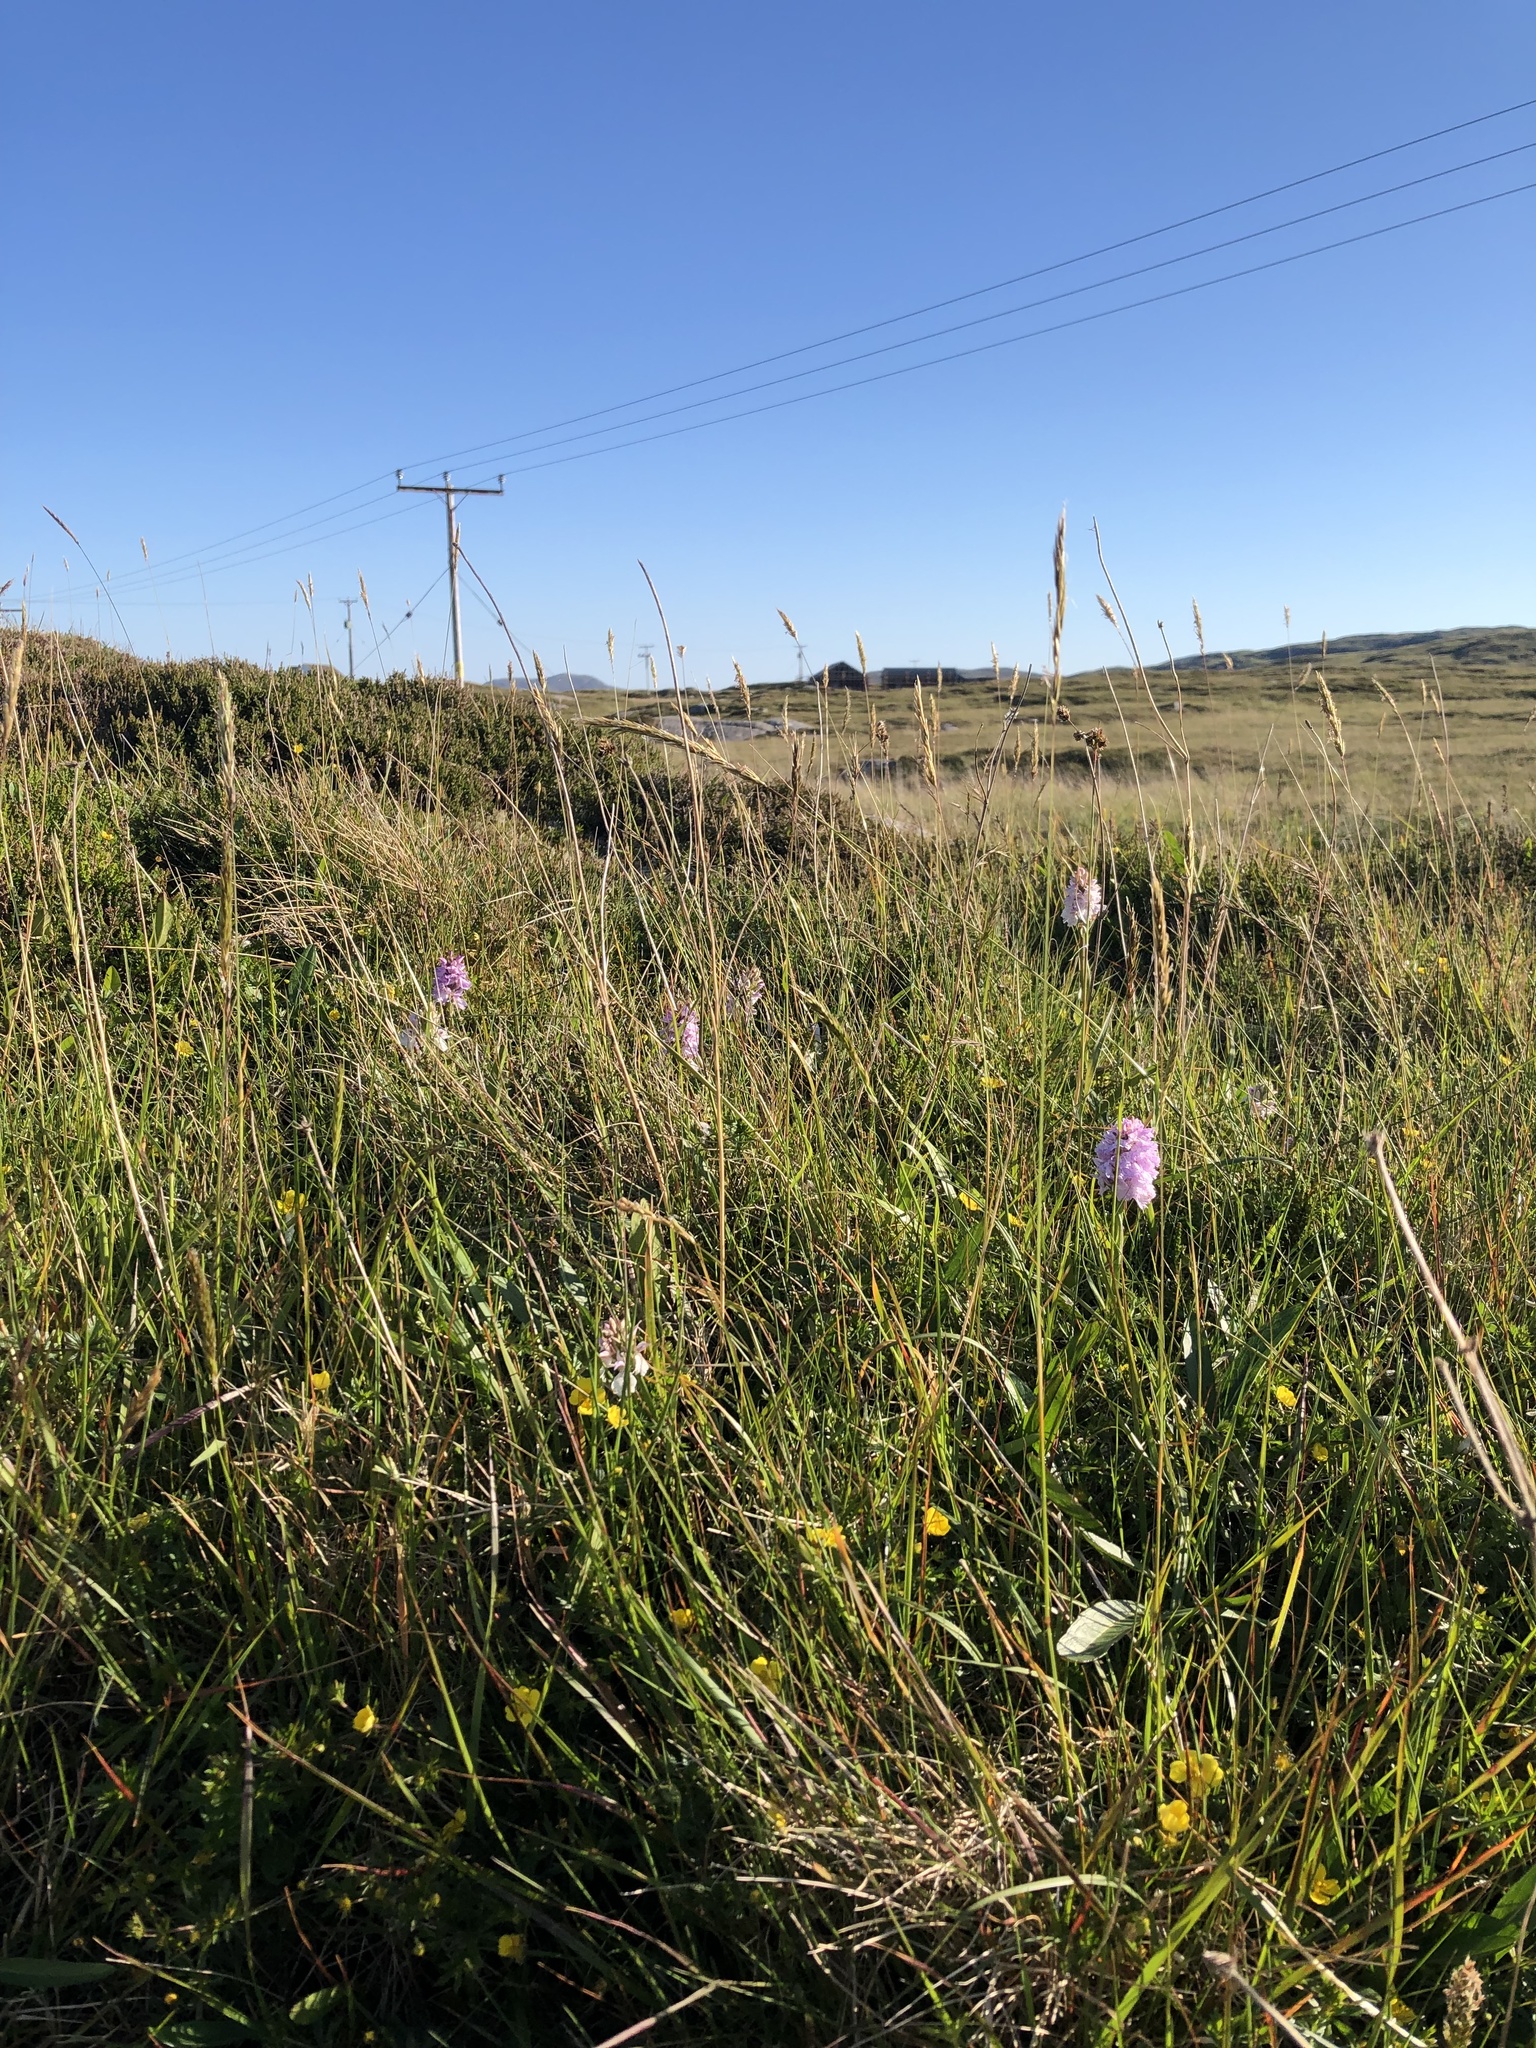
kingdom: Plantae
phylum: Tracheophyta
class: Liliopsida
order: Asparagales
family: Orchidaceae
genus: Dactylorhiza
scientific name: Dactylorhiza maculata
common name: Heath spotted-orchid
